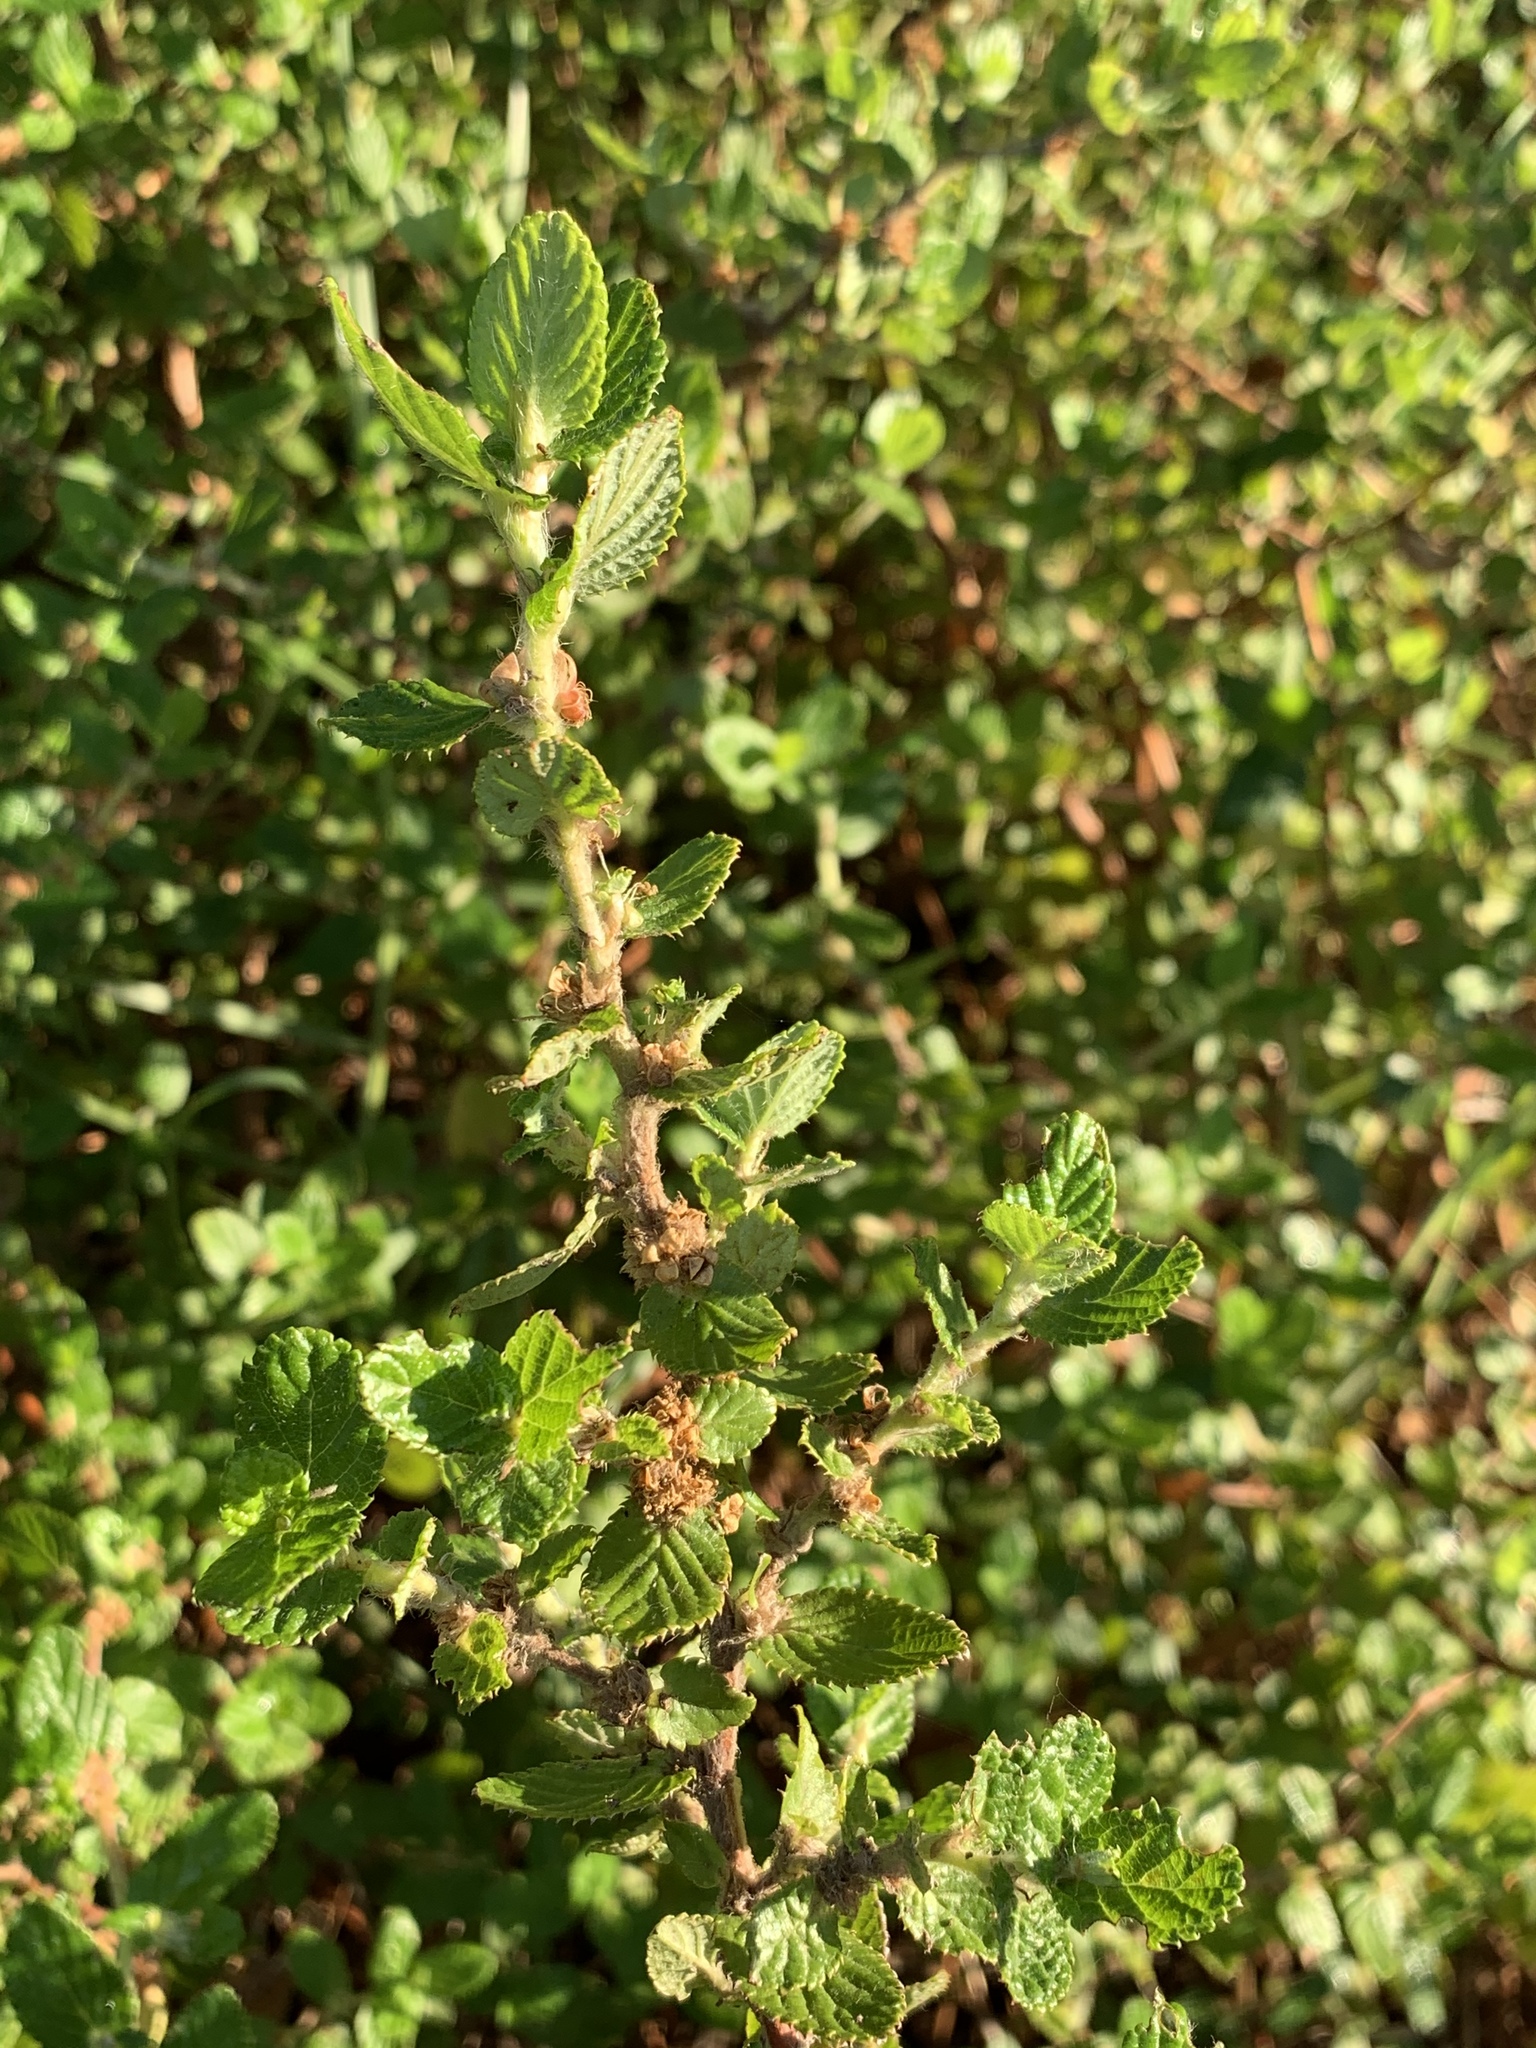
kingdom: Plantae
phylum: Tracheophyta
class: Magnoliopsida
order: Rosales
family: Rosaceae
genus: Cliffortia
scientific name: Cliffortia odorata
